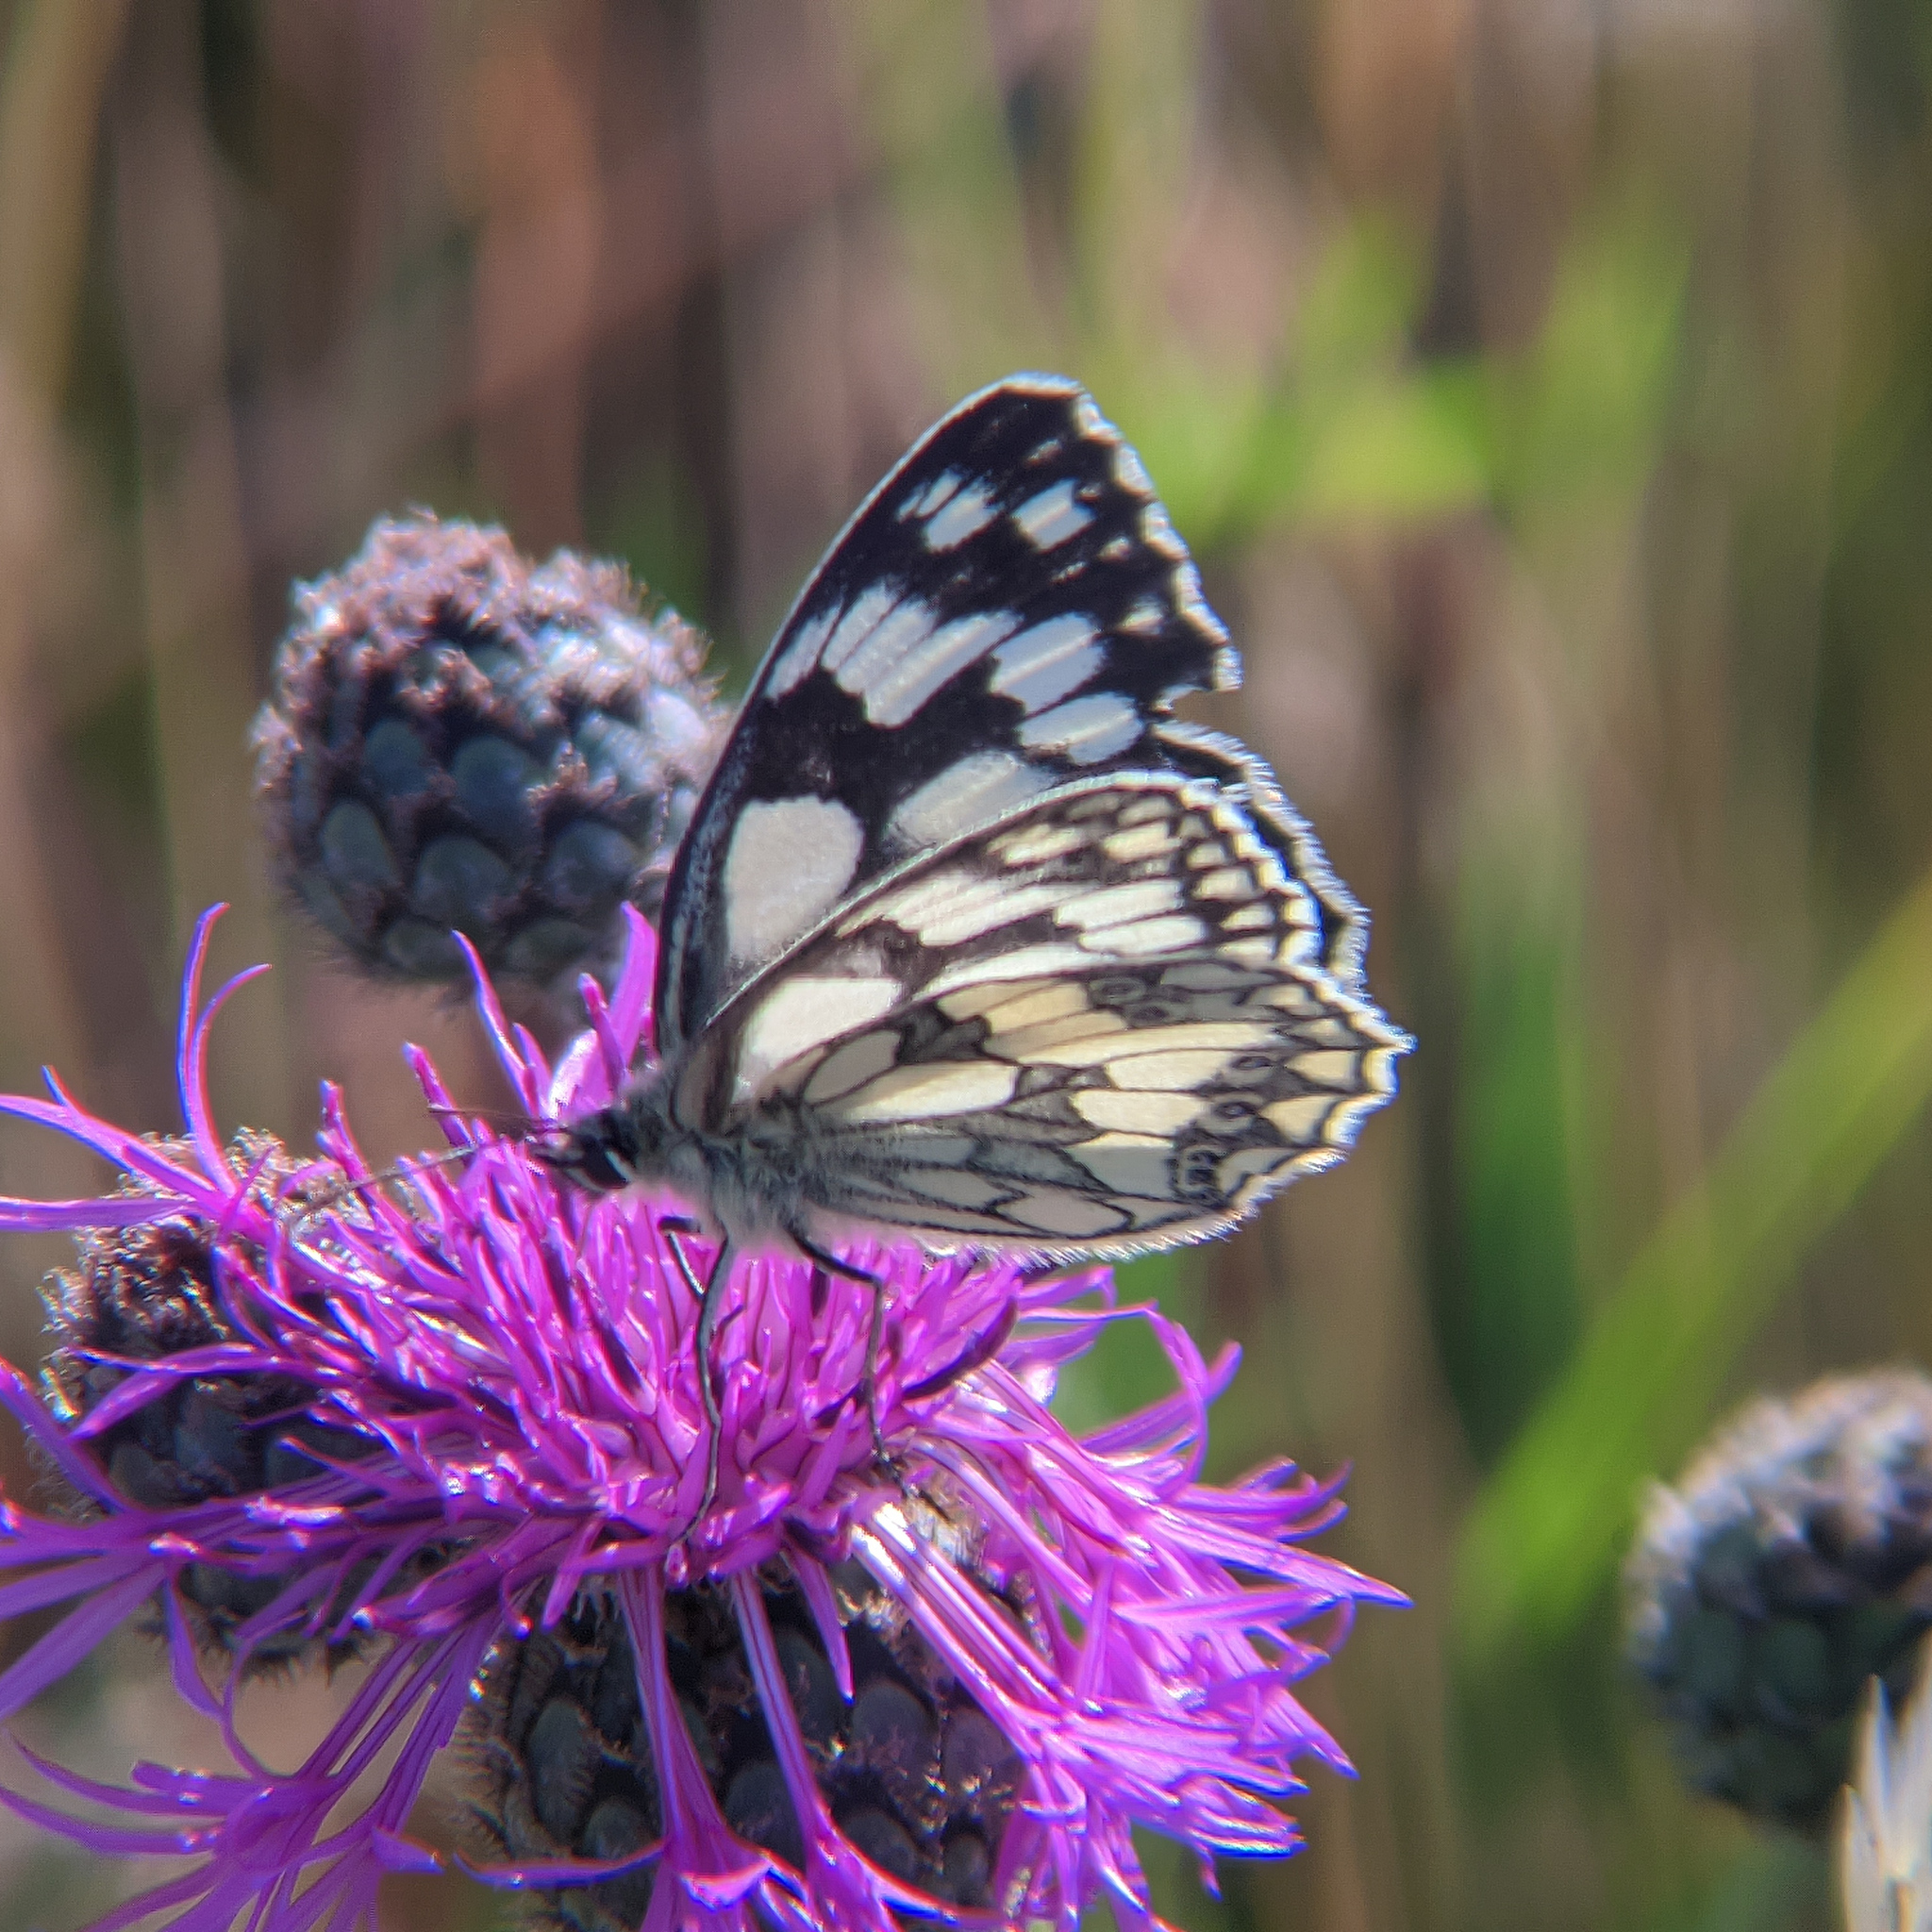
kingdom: Animalia
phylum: Arthropoda
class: Insecta
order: Lepidoptera
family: Nymphalidae
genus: Melanargia
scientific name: Melanargia galathea
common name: Marbled white
